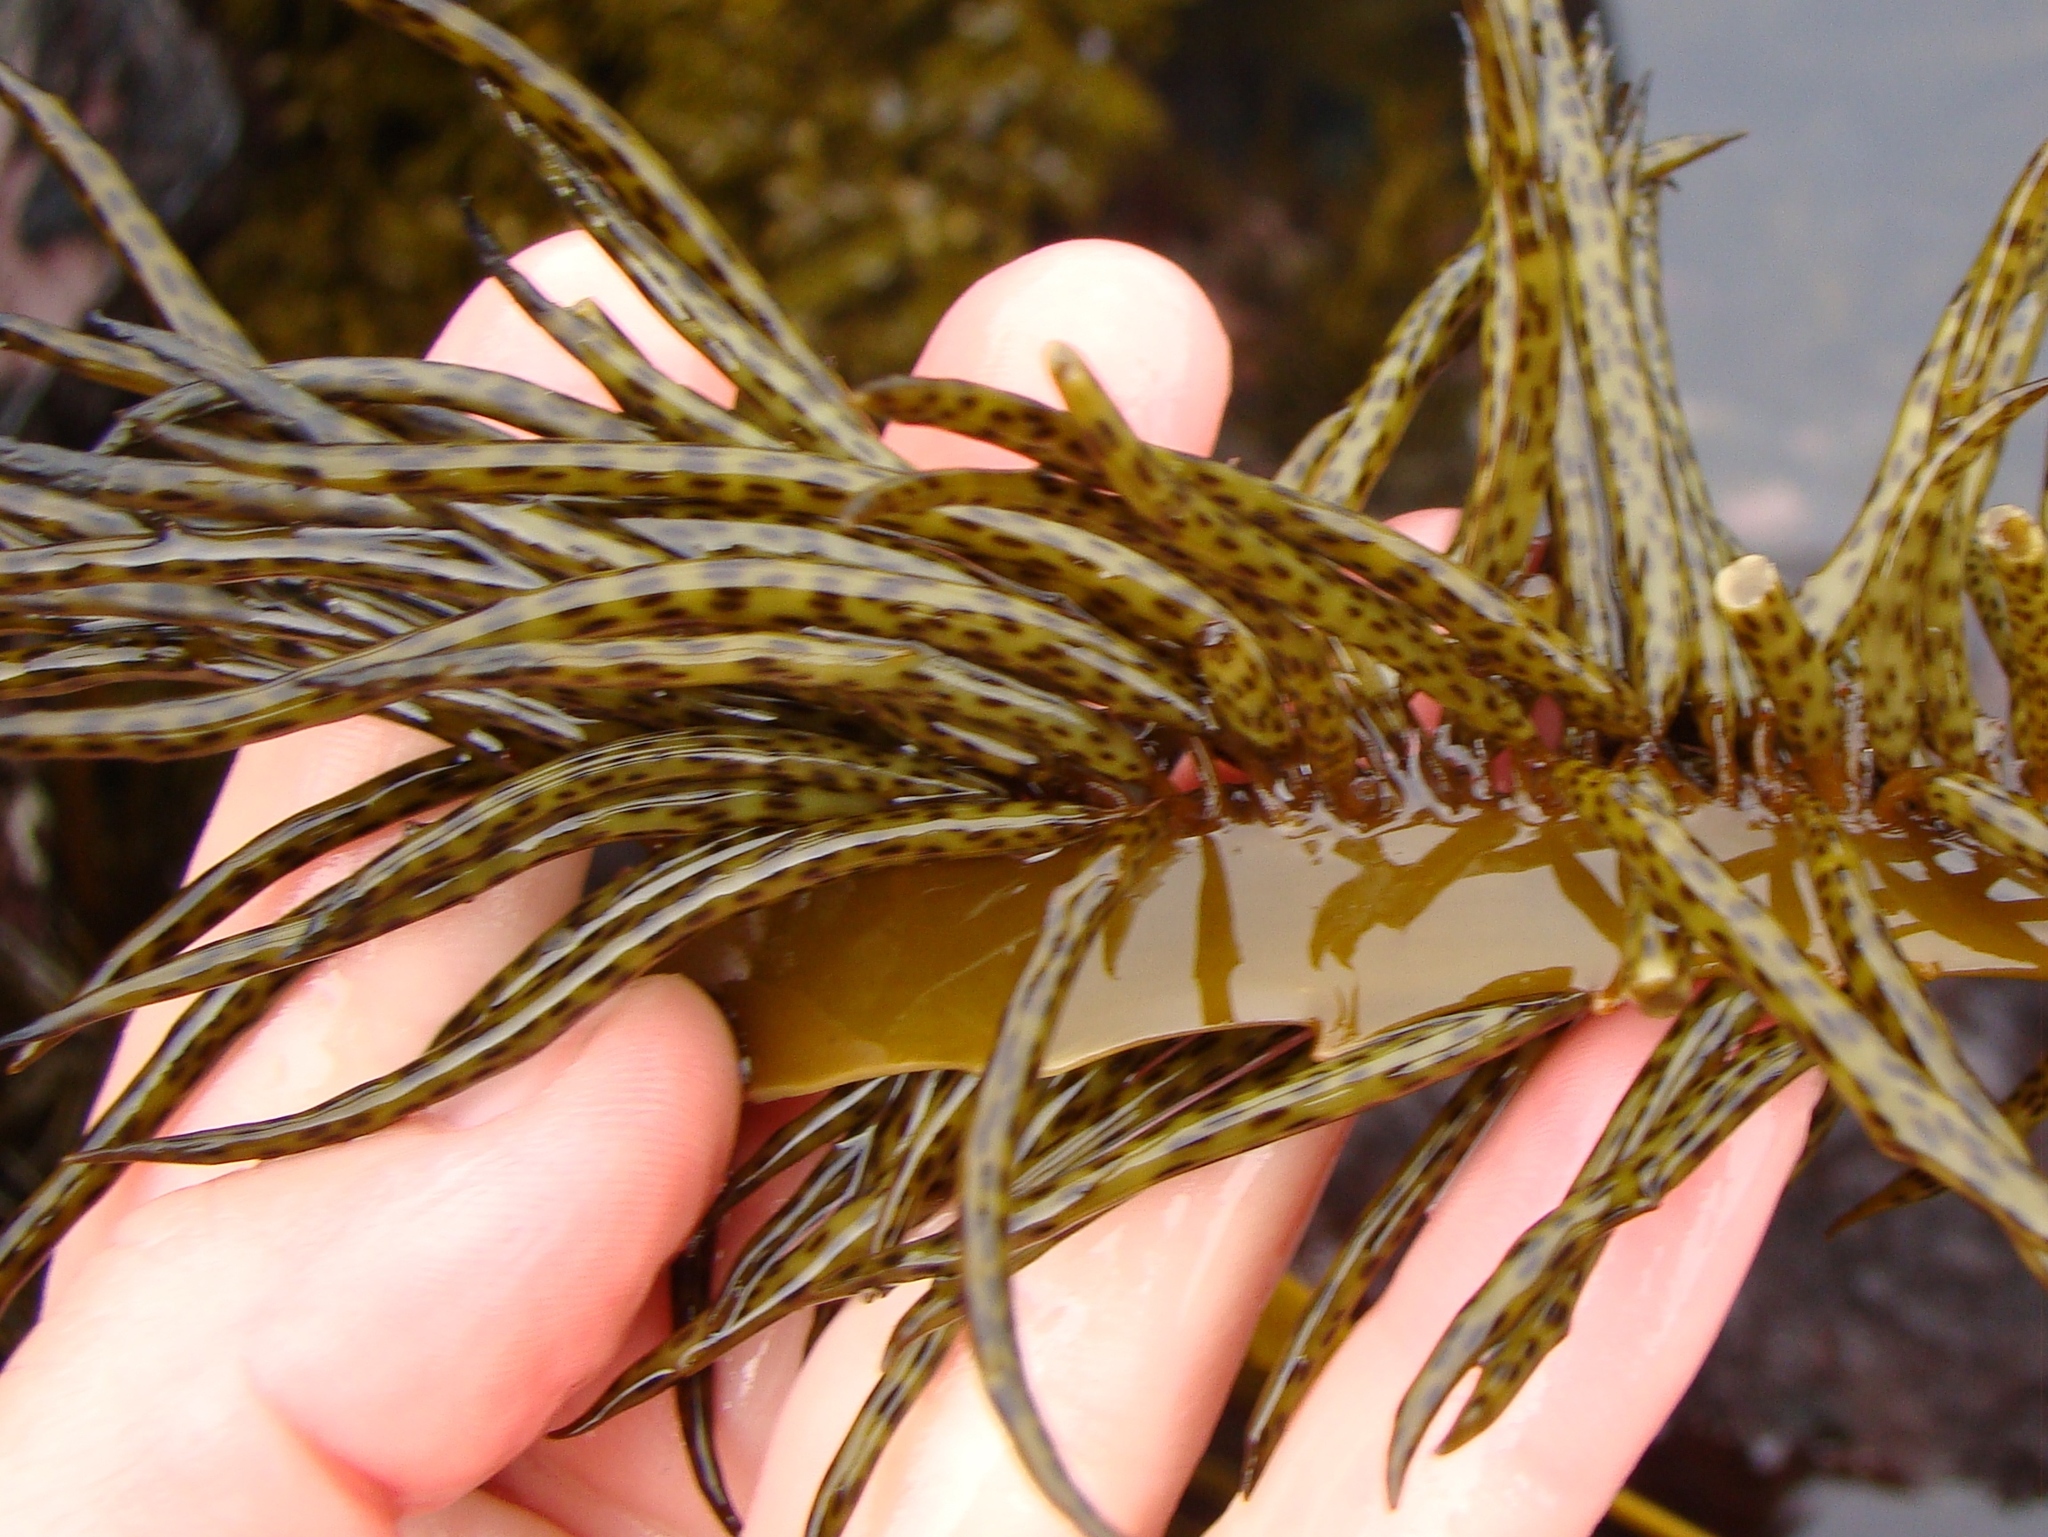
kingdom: Chromista
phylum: Ochrophyta
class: Phaeophyceae
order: Fucales
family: Seirococcaceae
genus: Marginariella
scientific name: Marginariella boryana
